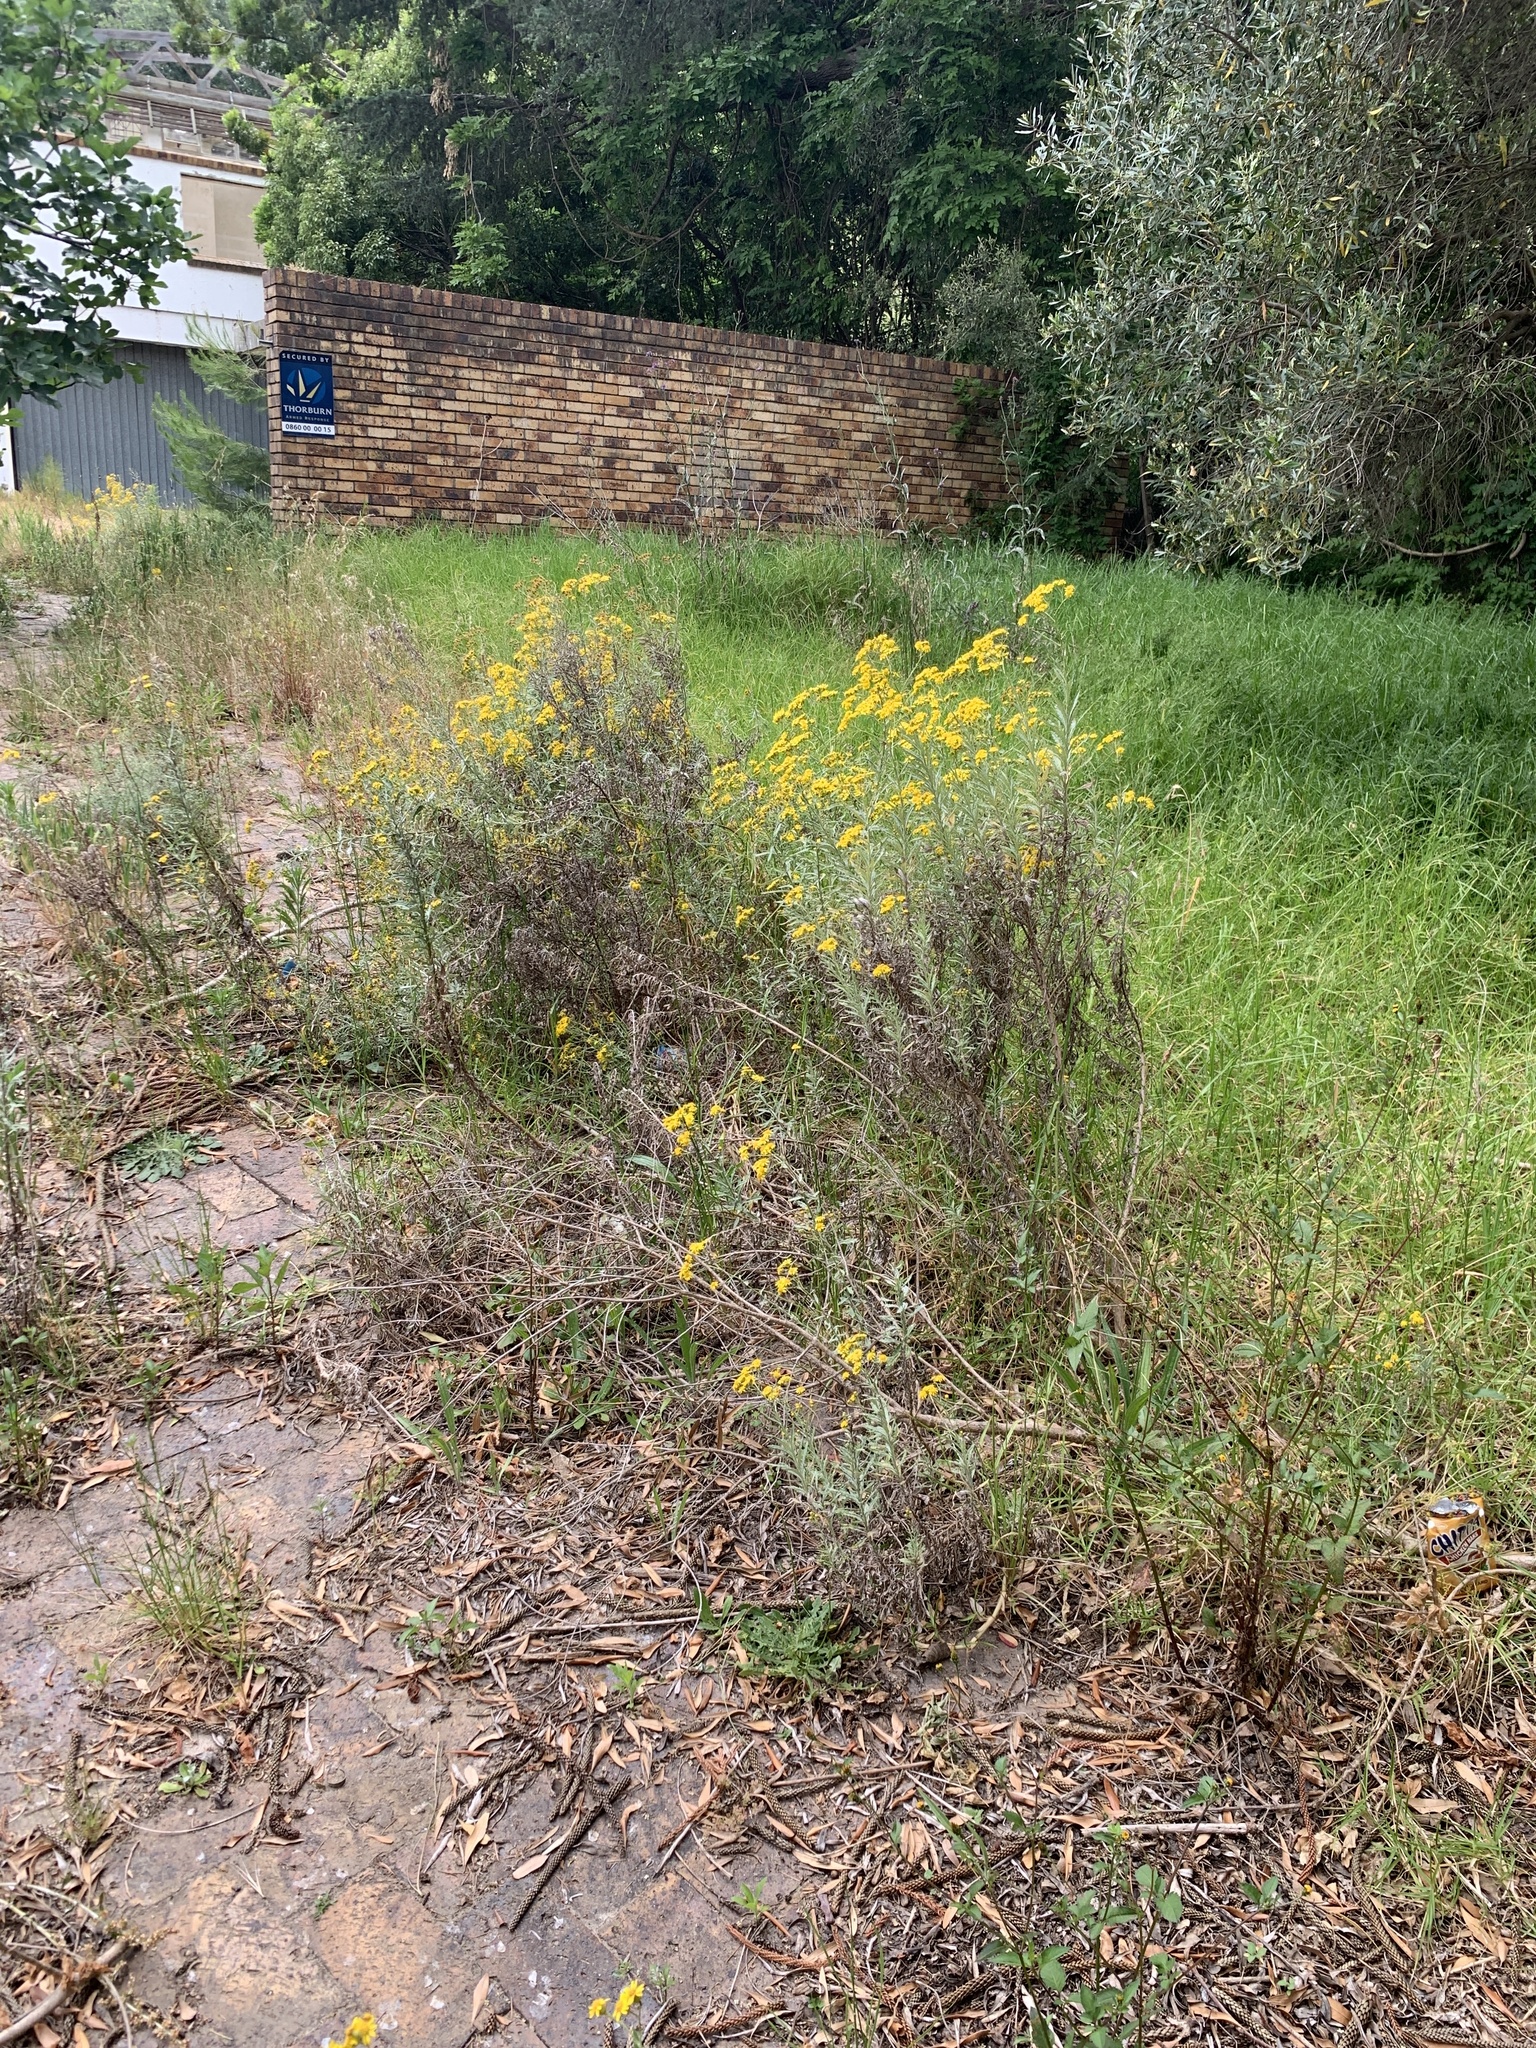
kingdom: Plantae
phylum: Tracheophyta
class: Magnoliopsida
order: Asterales
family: Asteraceae
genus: Senecio
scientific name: Senecio pterophorus
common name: Shoddy ragwort
